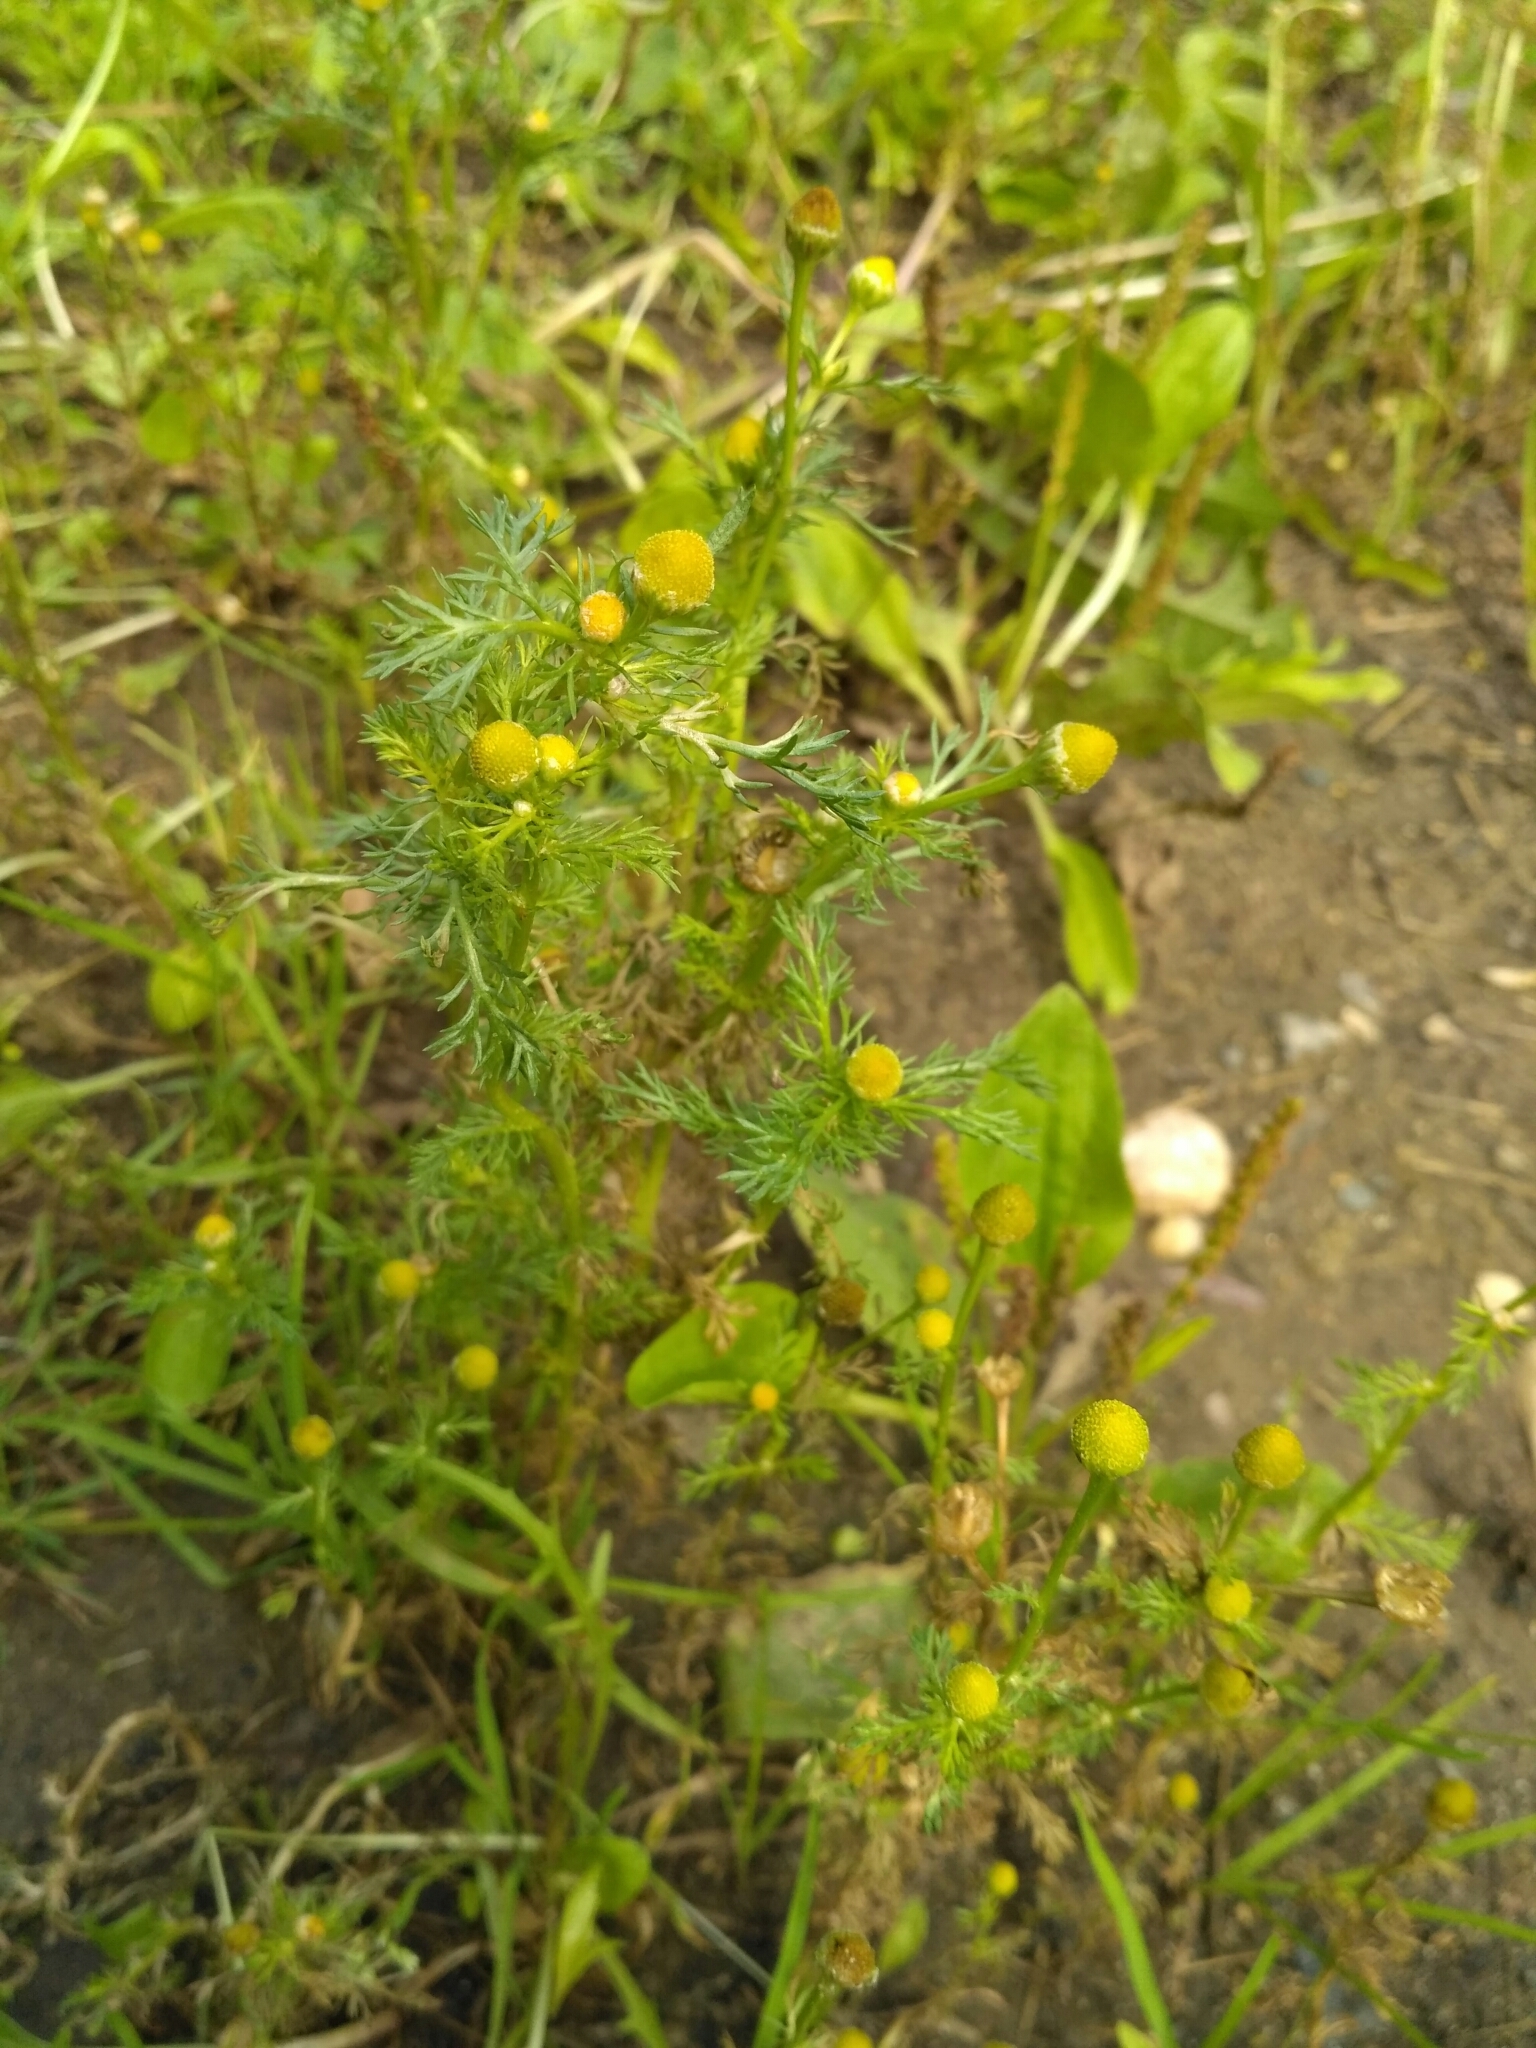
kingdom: Plantae
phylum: Tracheophyta
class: Magnoliopsida
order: Asterales
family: Asteraceae
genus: Matricaria
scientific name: Matricaria discoidea
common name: Disc mayweed
